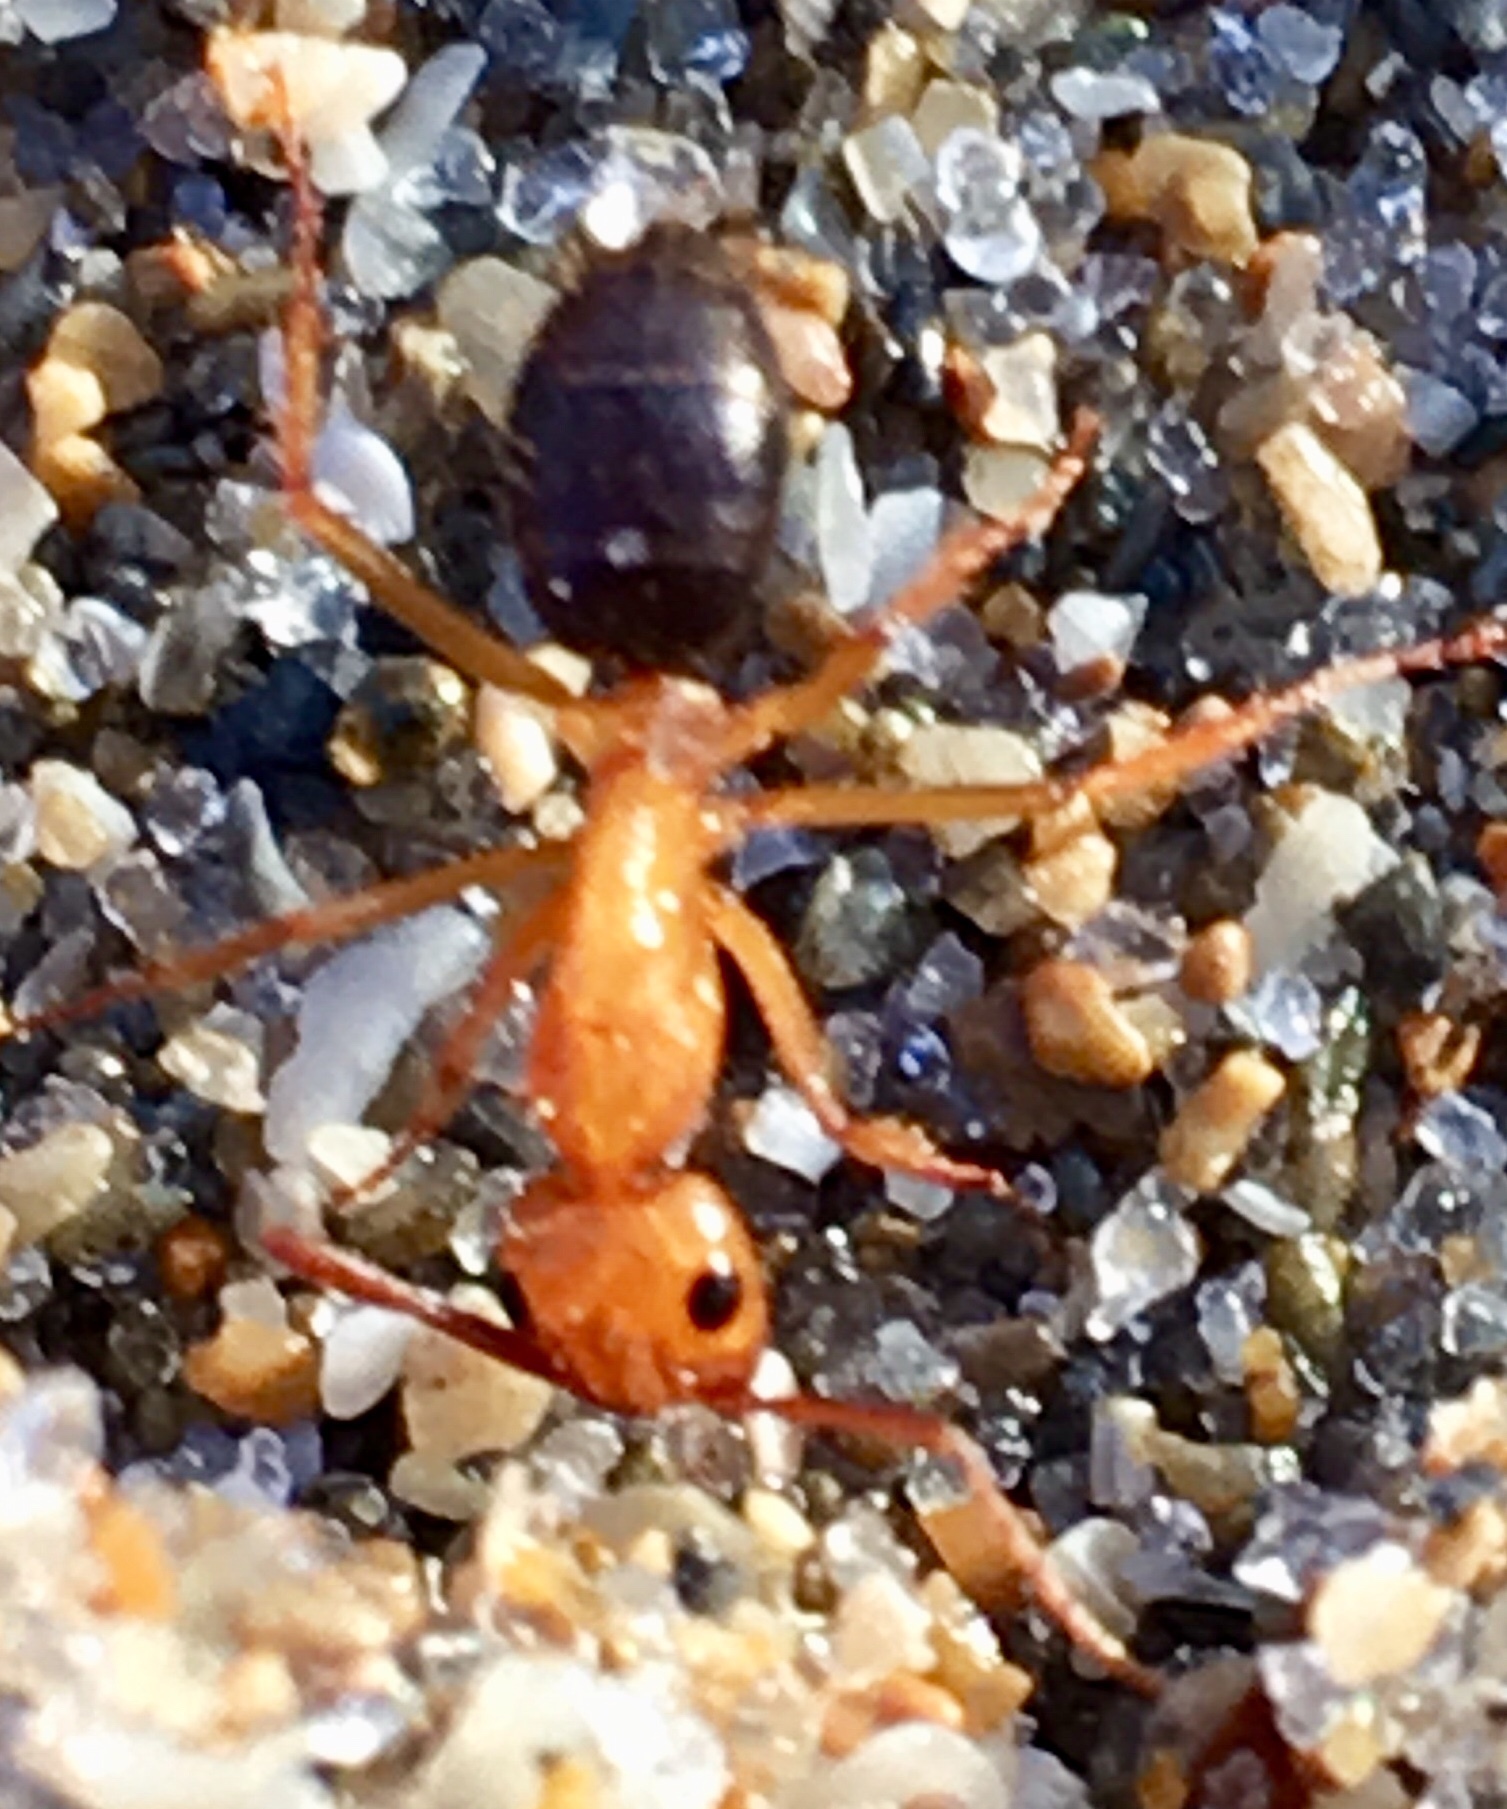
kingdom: Animalia
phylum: Arthropoda
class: Insecta
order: Hymenoptera
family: Formicidae
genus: Camponotus
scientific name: Camponotus floridanus
